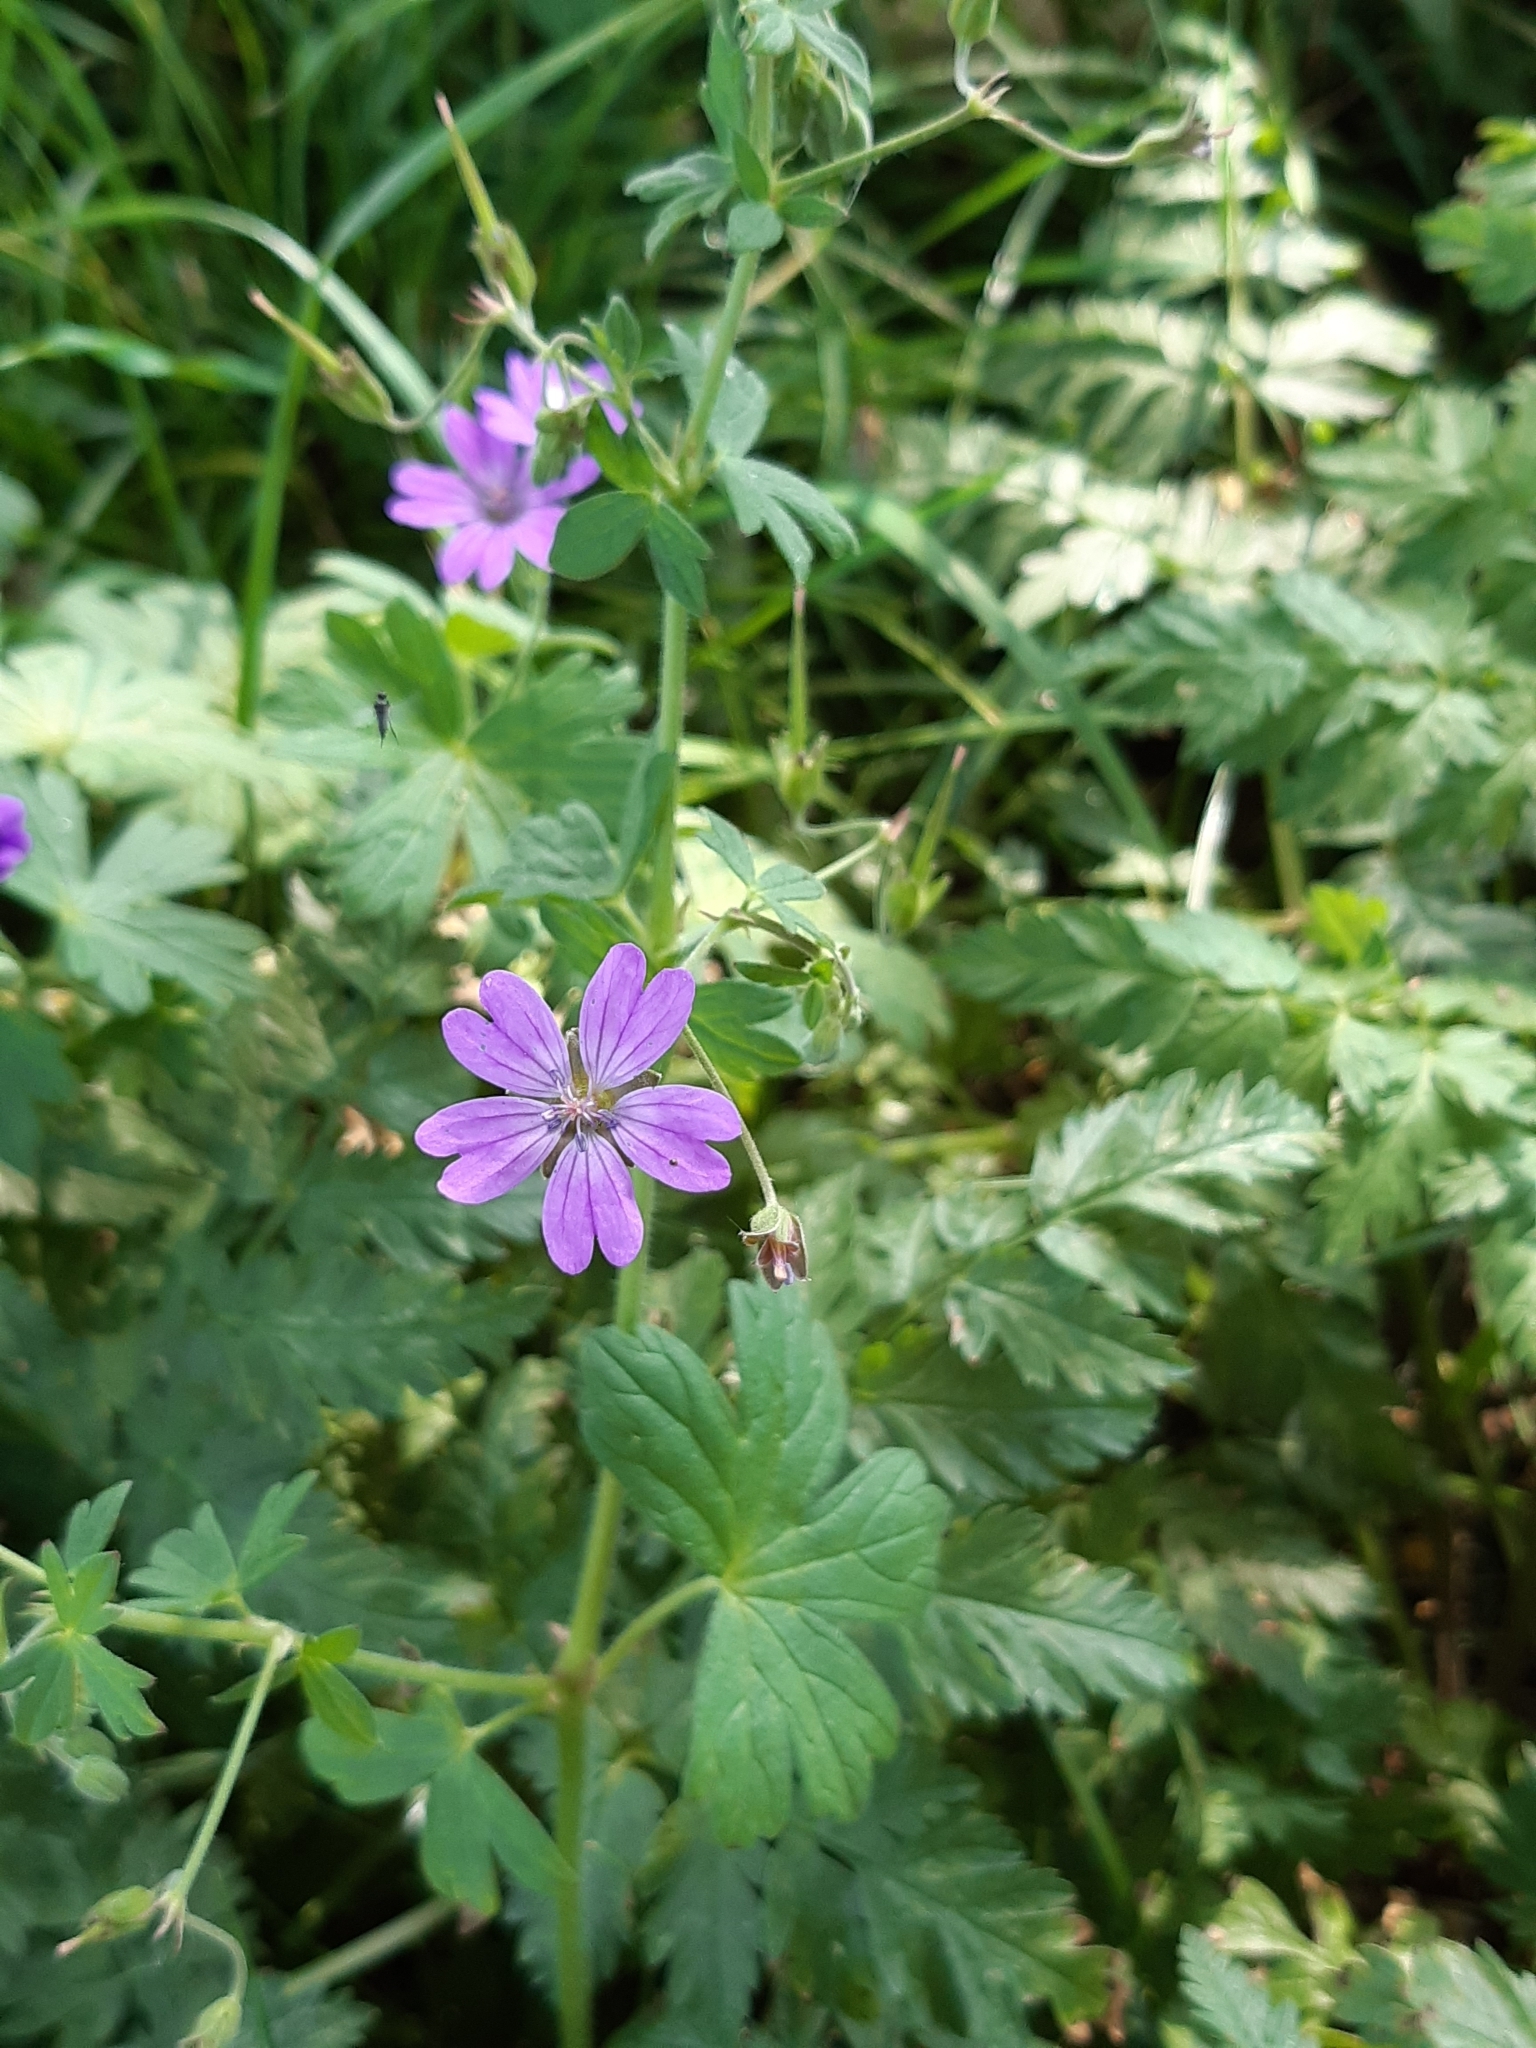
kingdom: Plantae
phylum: Tracheophyta
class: Magnoliopsida
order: Geraniales
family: Geraniaceae
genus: Geranium
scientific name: Geranium pyrenaicum
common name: Hedgerow crane's-bill
